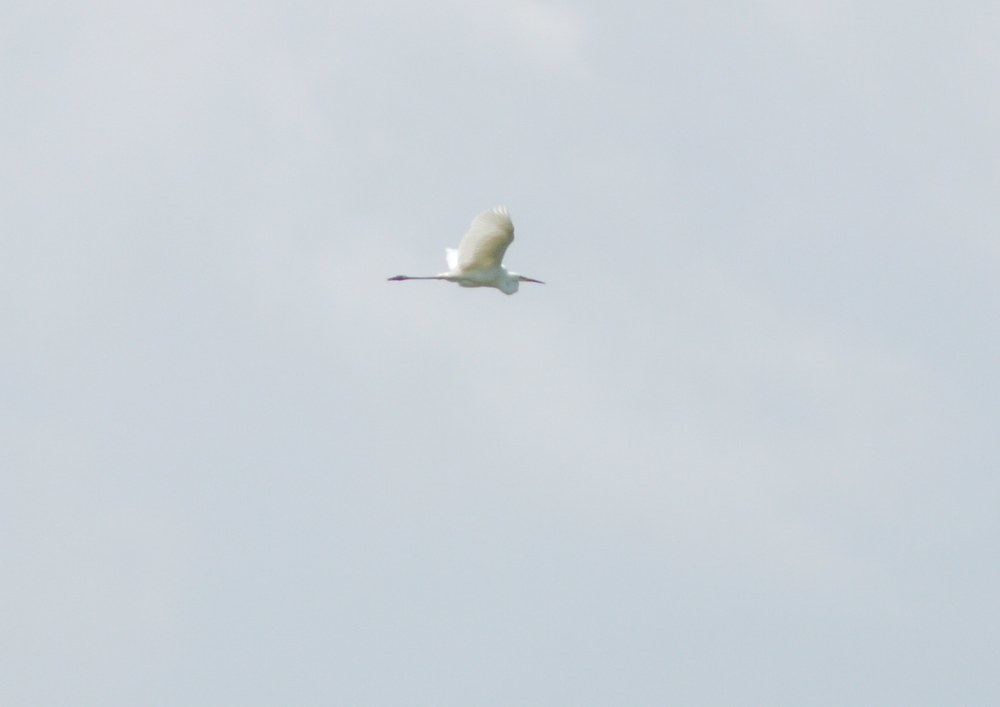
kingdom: Animalia
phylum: Chordata
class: Aves
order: Pelecaniformes
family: Ardeidae
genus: Ardea
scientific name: Ardea alba
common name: Great egret
